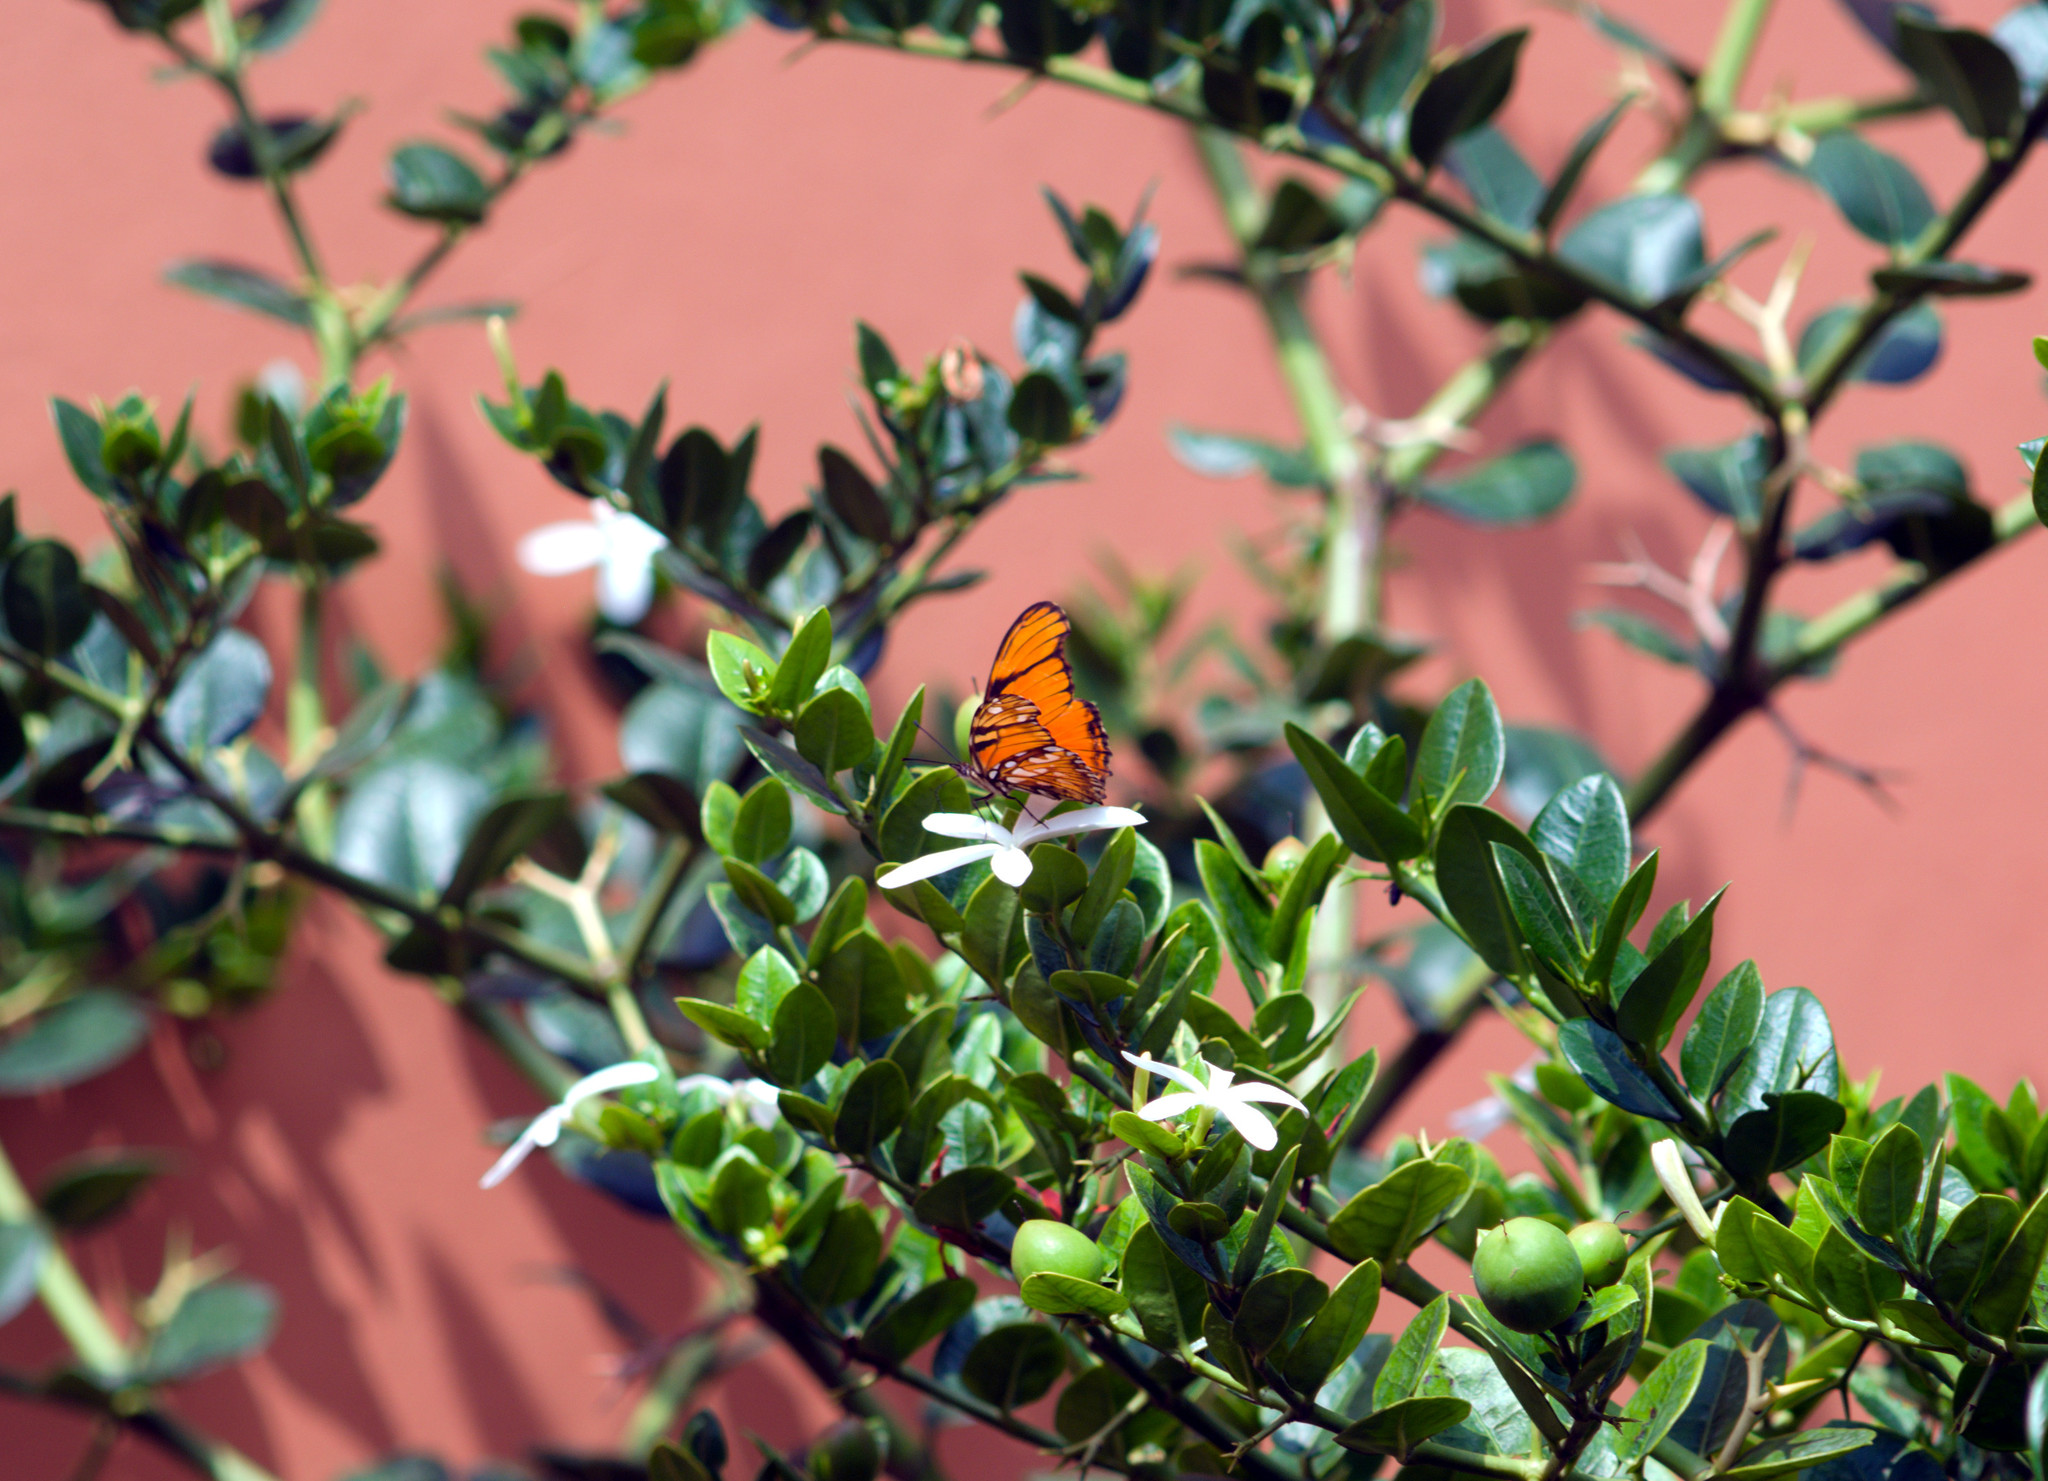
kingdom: Animalia
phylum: Arthropoda
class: Insecta
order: Lepidoptera
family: Nymphalidae
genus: Dione
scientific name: Dione juno
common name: Juno silverspot
